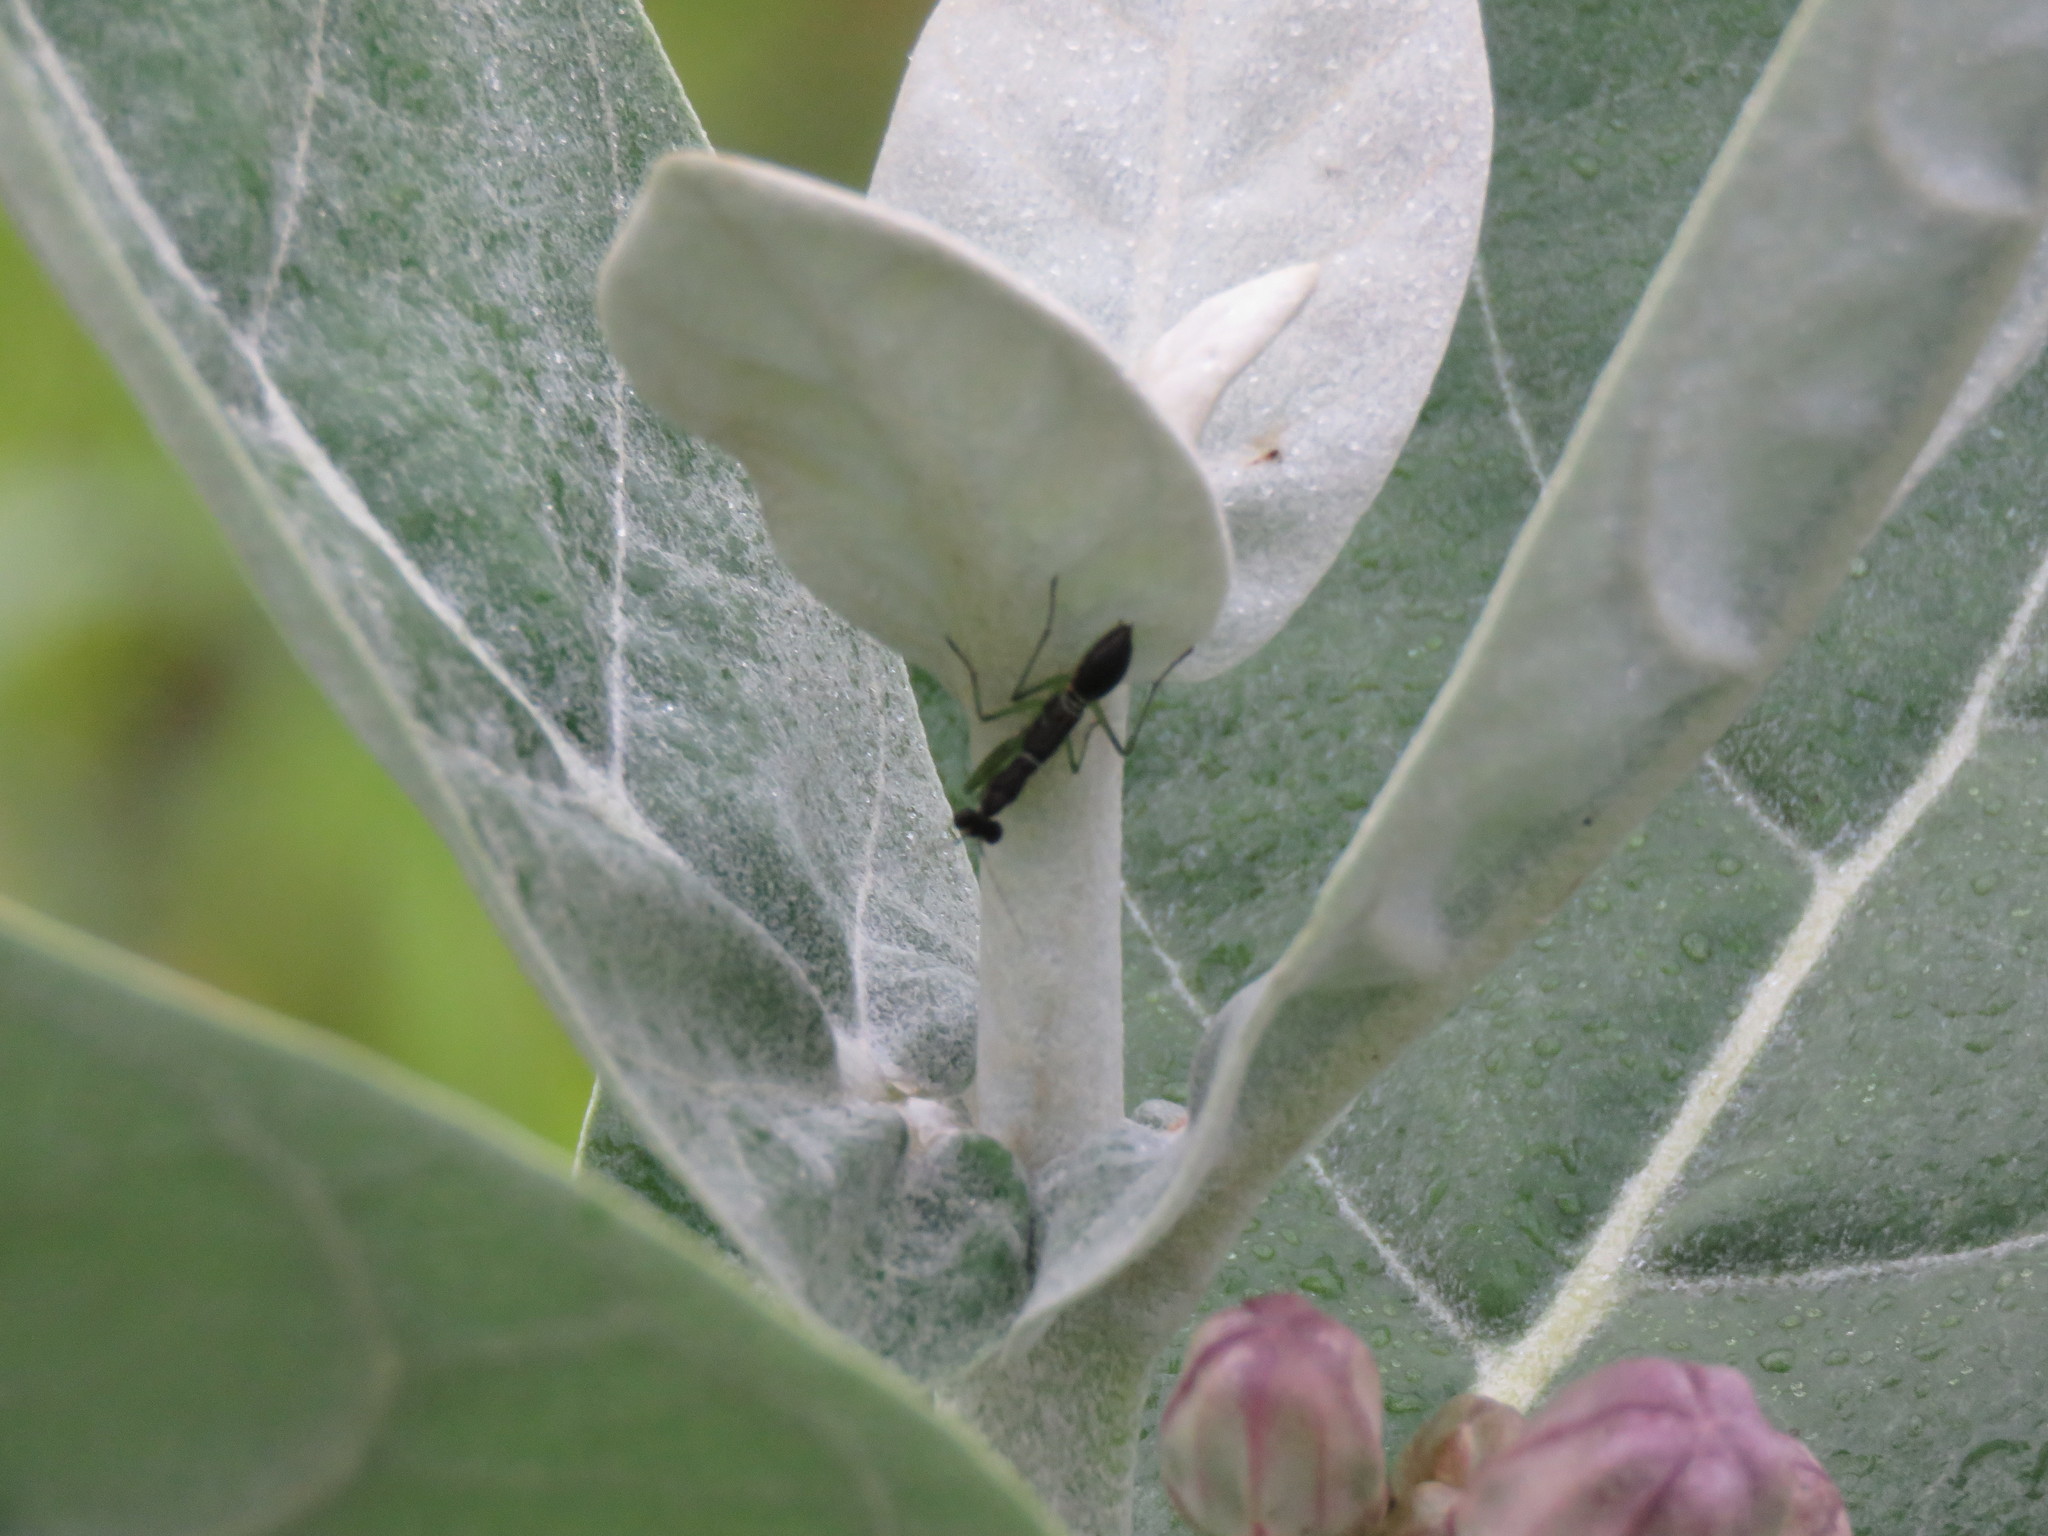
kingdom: Animalia
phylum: Arthropoda
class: Insecta
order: Mantodea
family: Hymenopodidae
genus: Odontomantis
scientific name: Odontomantis planiceps
